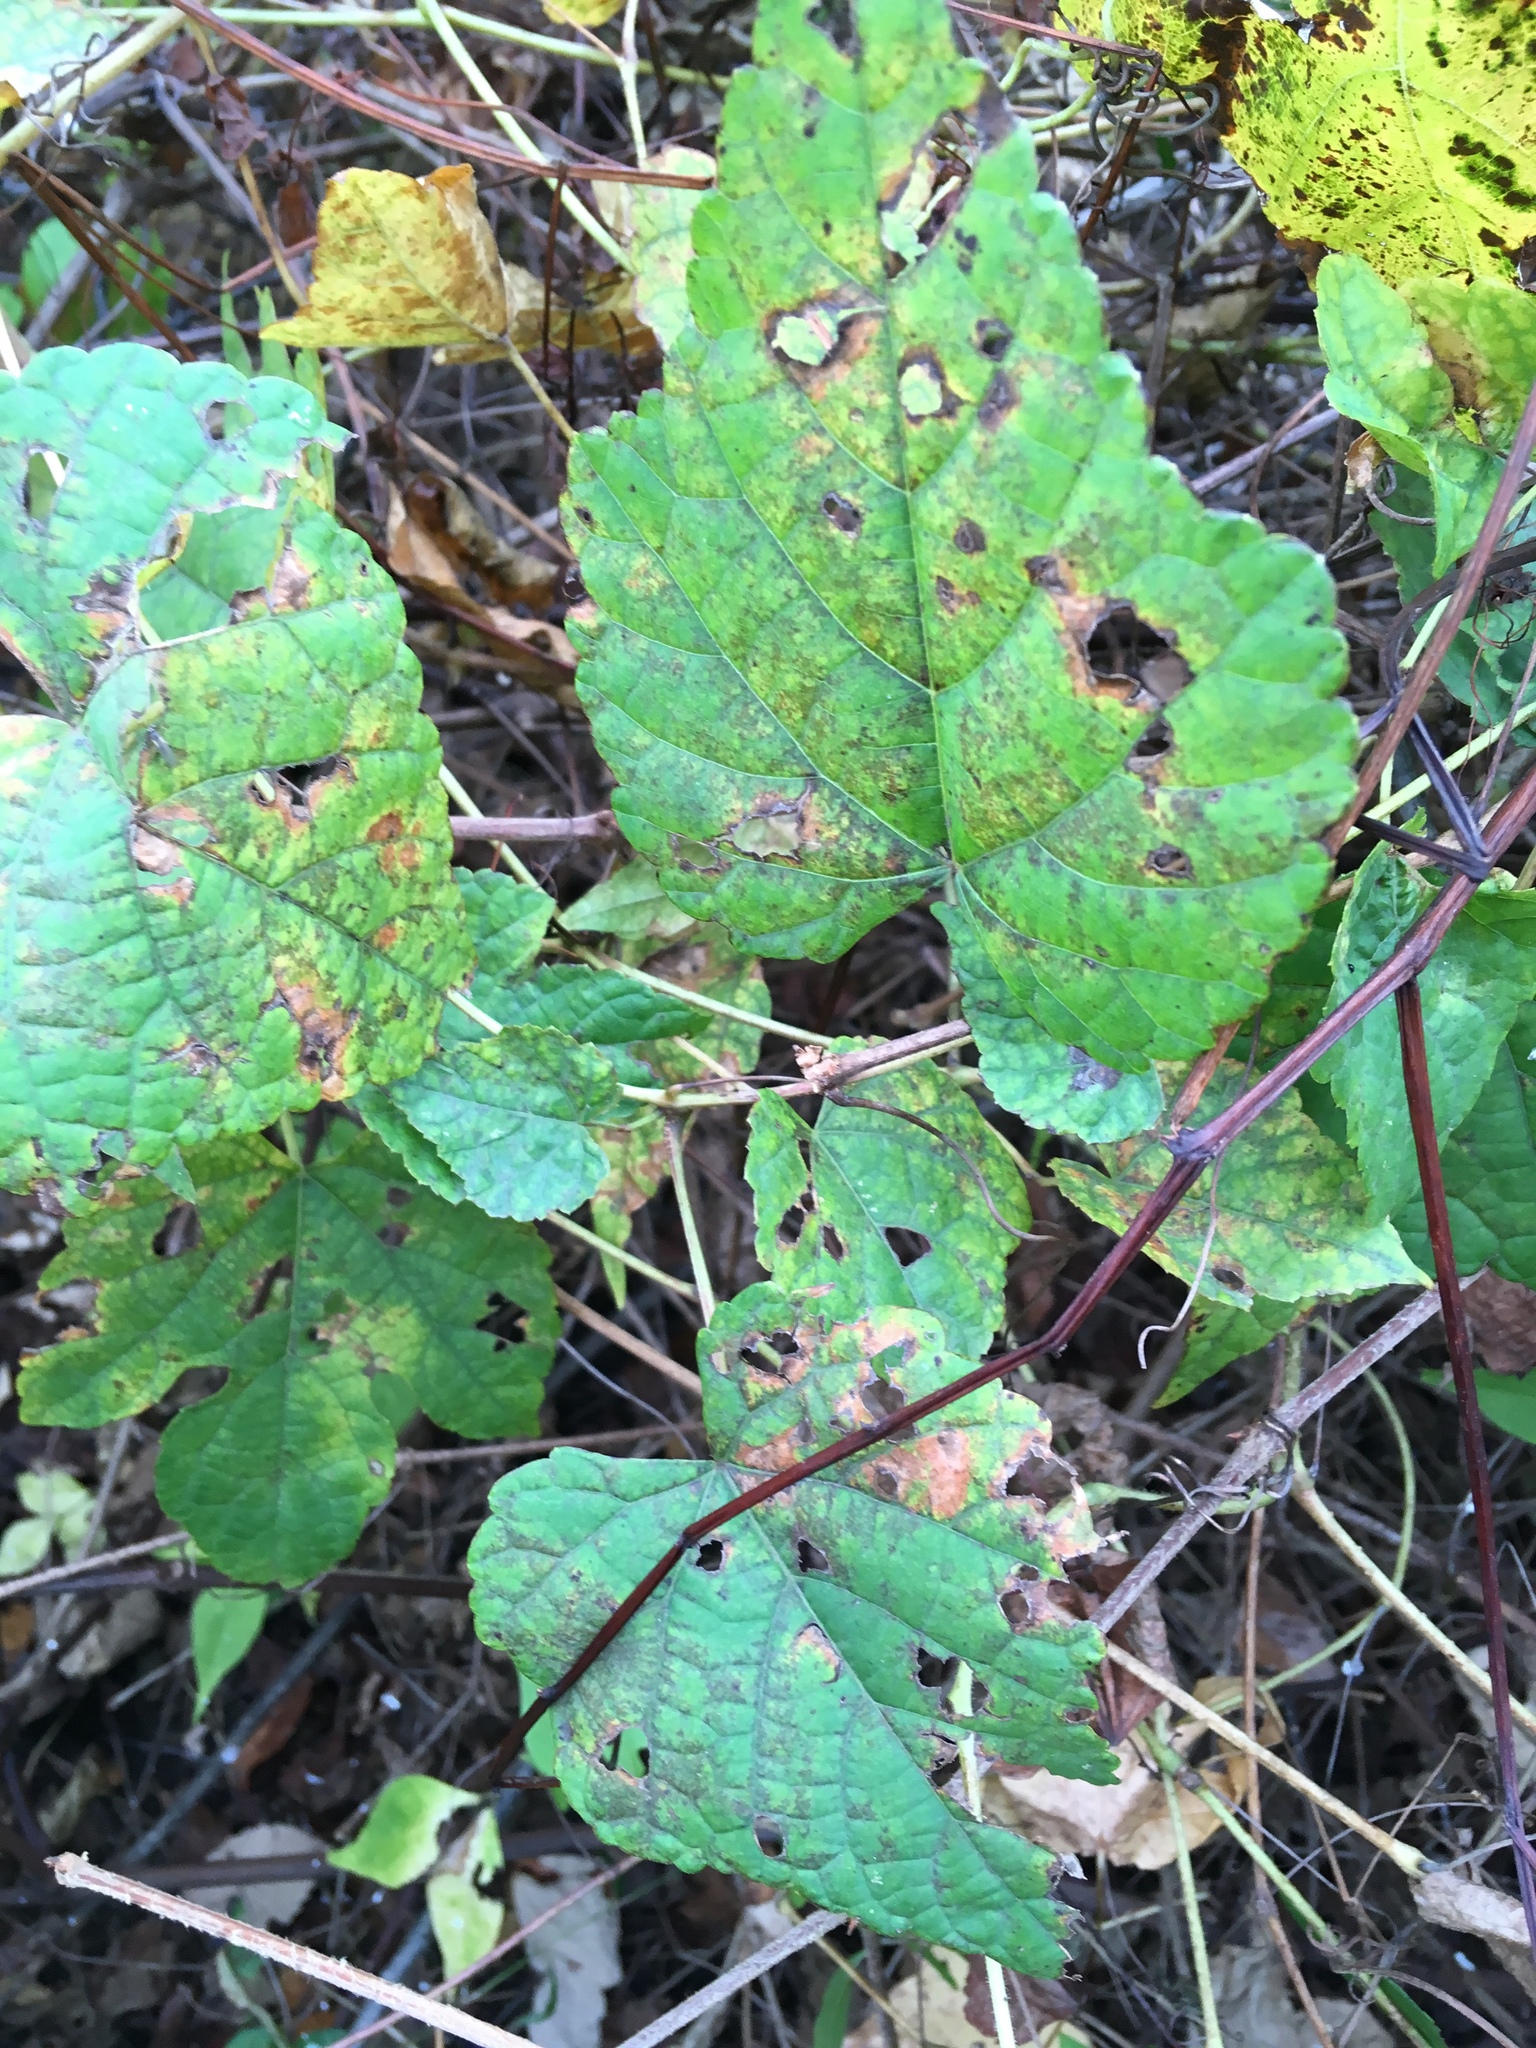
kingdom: Plantae
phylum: Tracheophyta
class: Magnoliopsida
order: Vitales
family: Vitaceae
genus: Ampelopsis
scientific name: Ampelopsis glandulosa
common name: Amur peppervine
